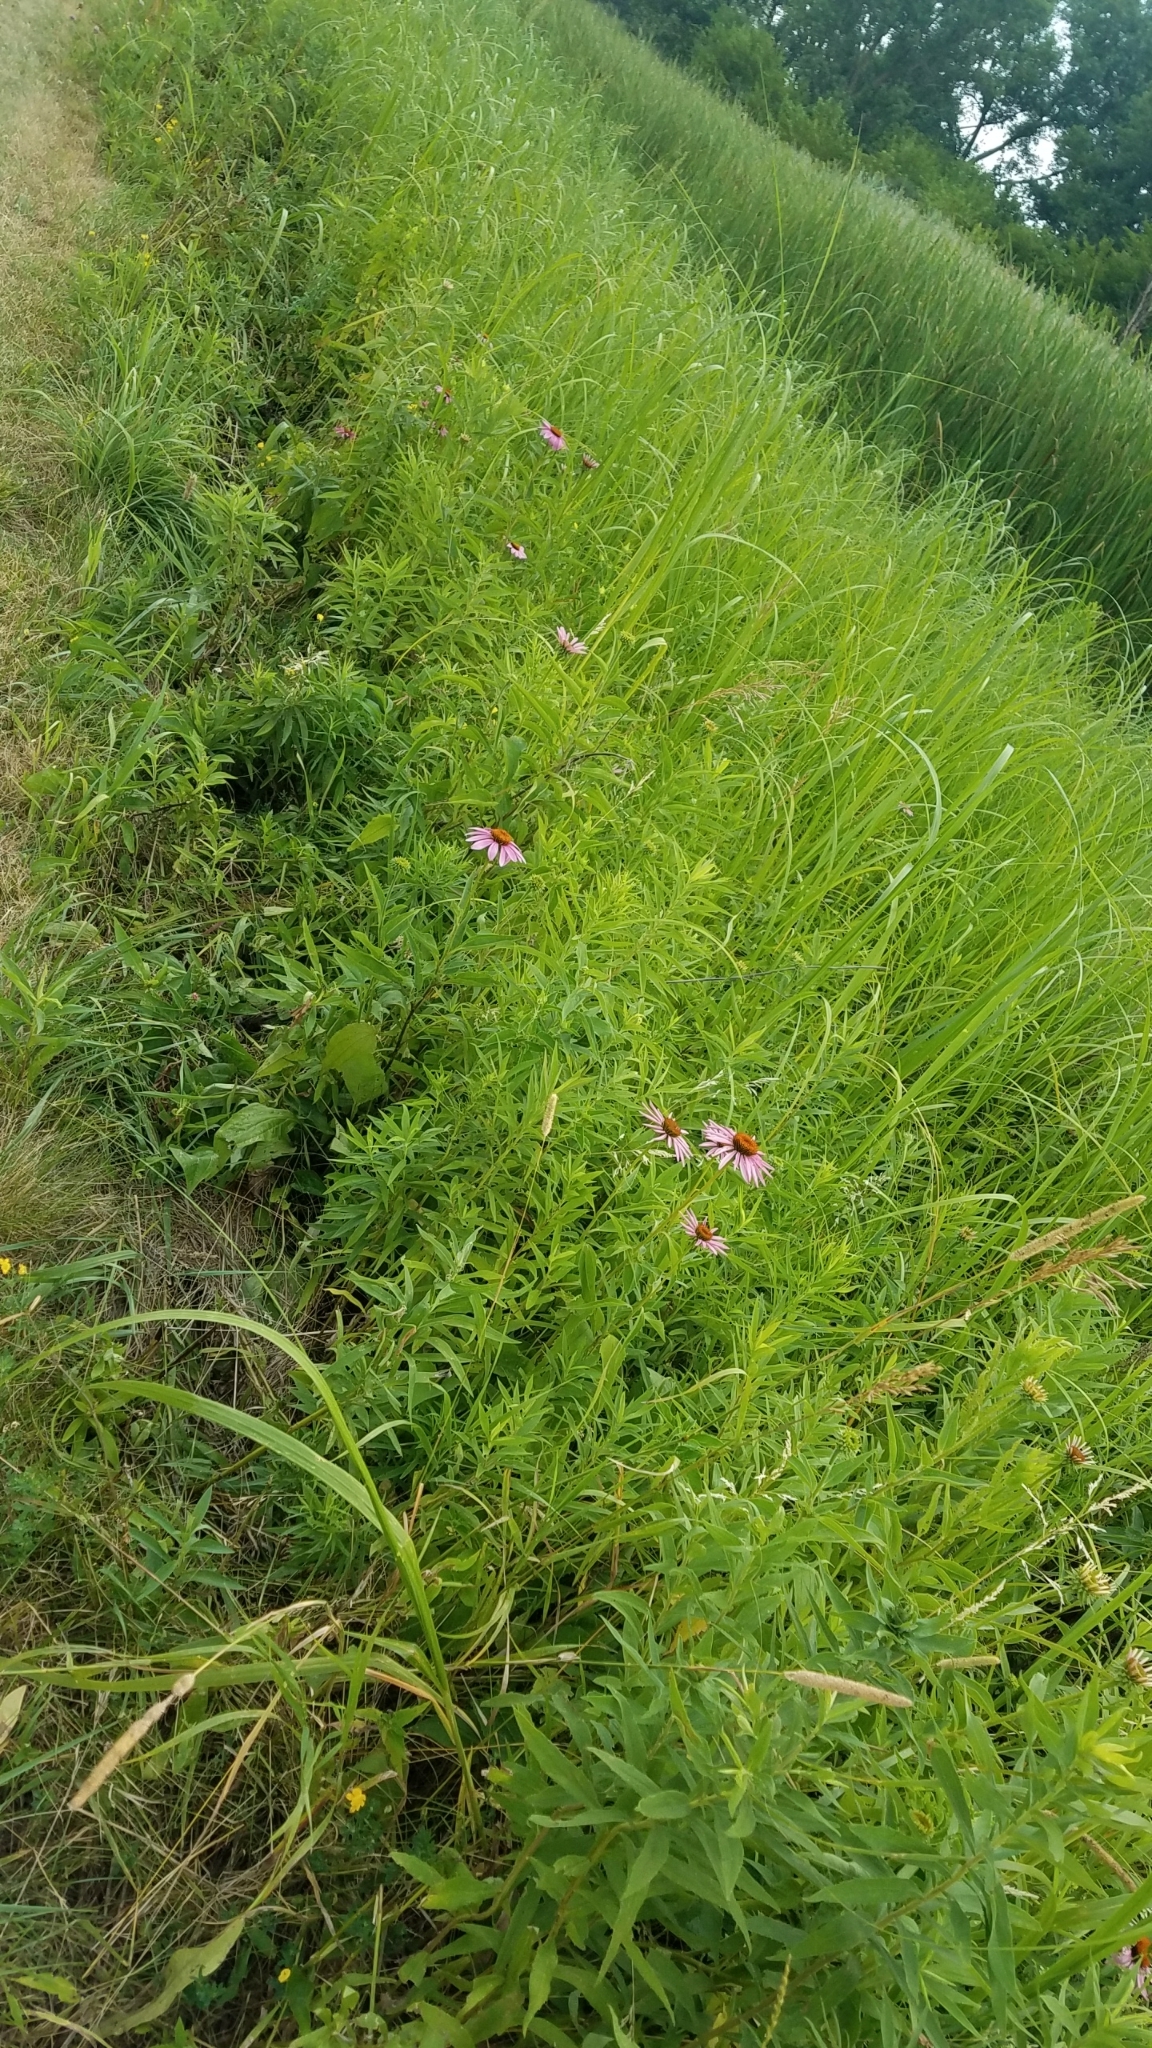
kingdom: Plantae
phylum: Tracheophyta
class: Magnoliopsida
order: Asterales
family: Asteraceae
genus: Echinacea
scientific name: Echinacea purpurea
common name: Broad-leaved purple coneflower
